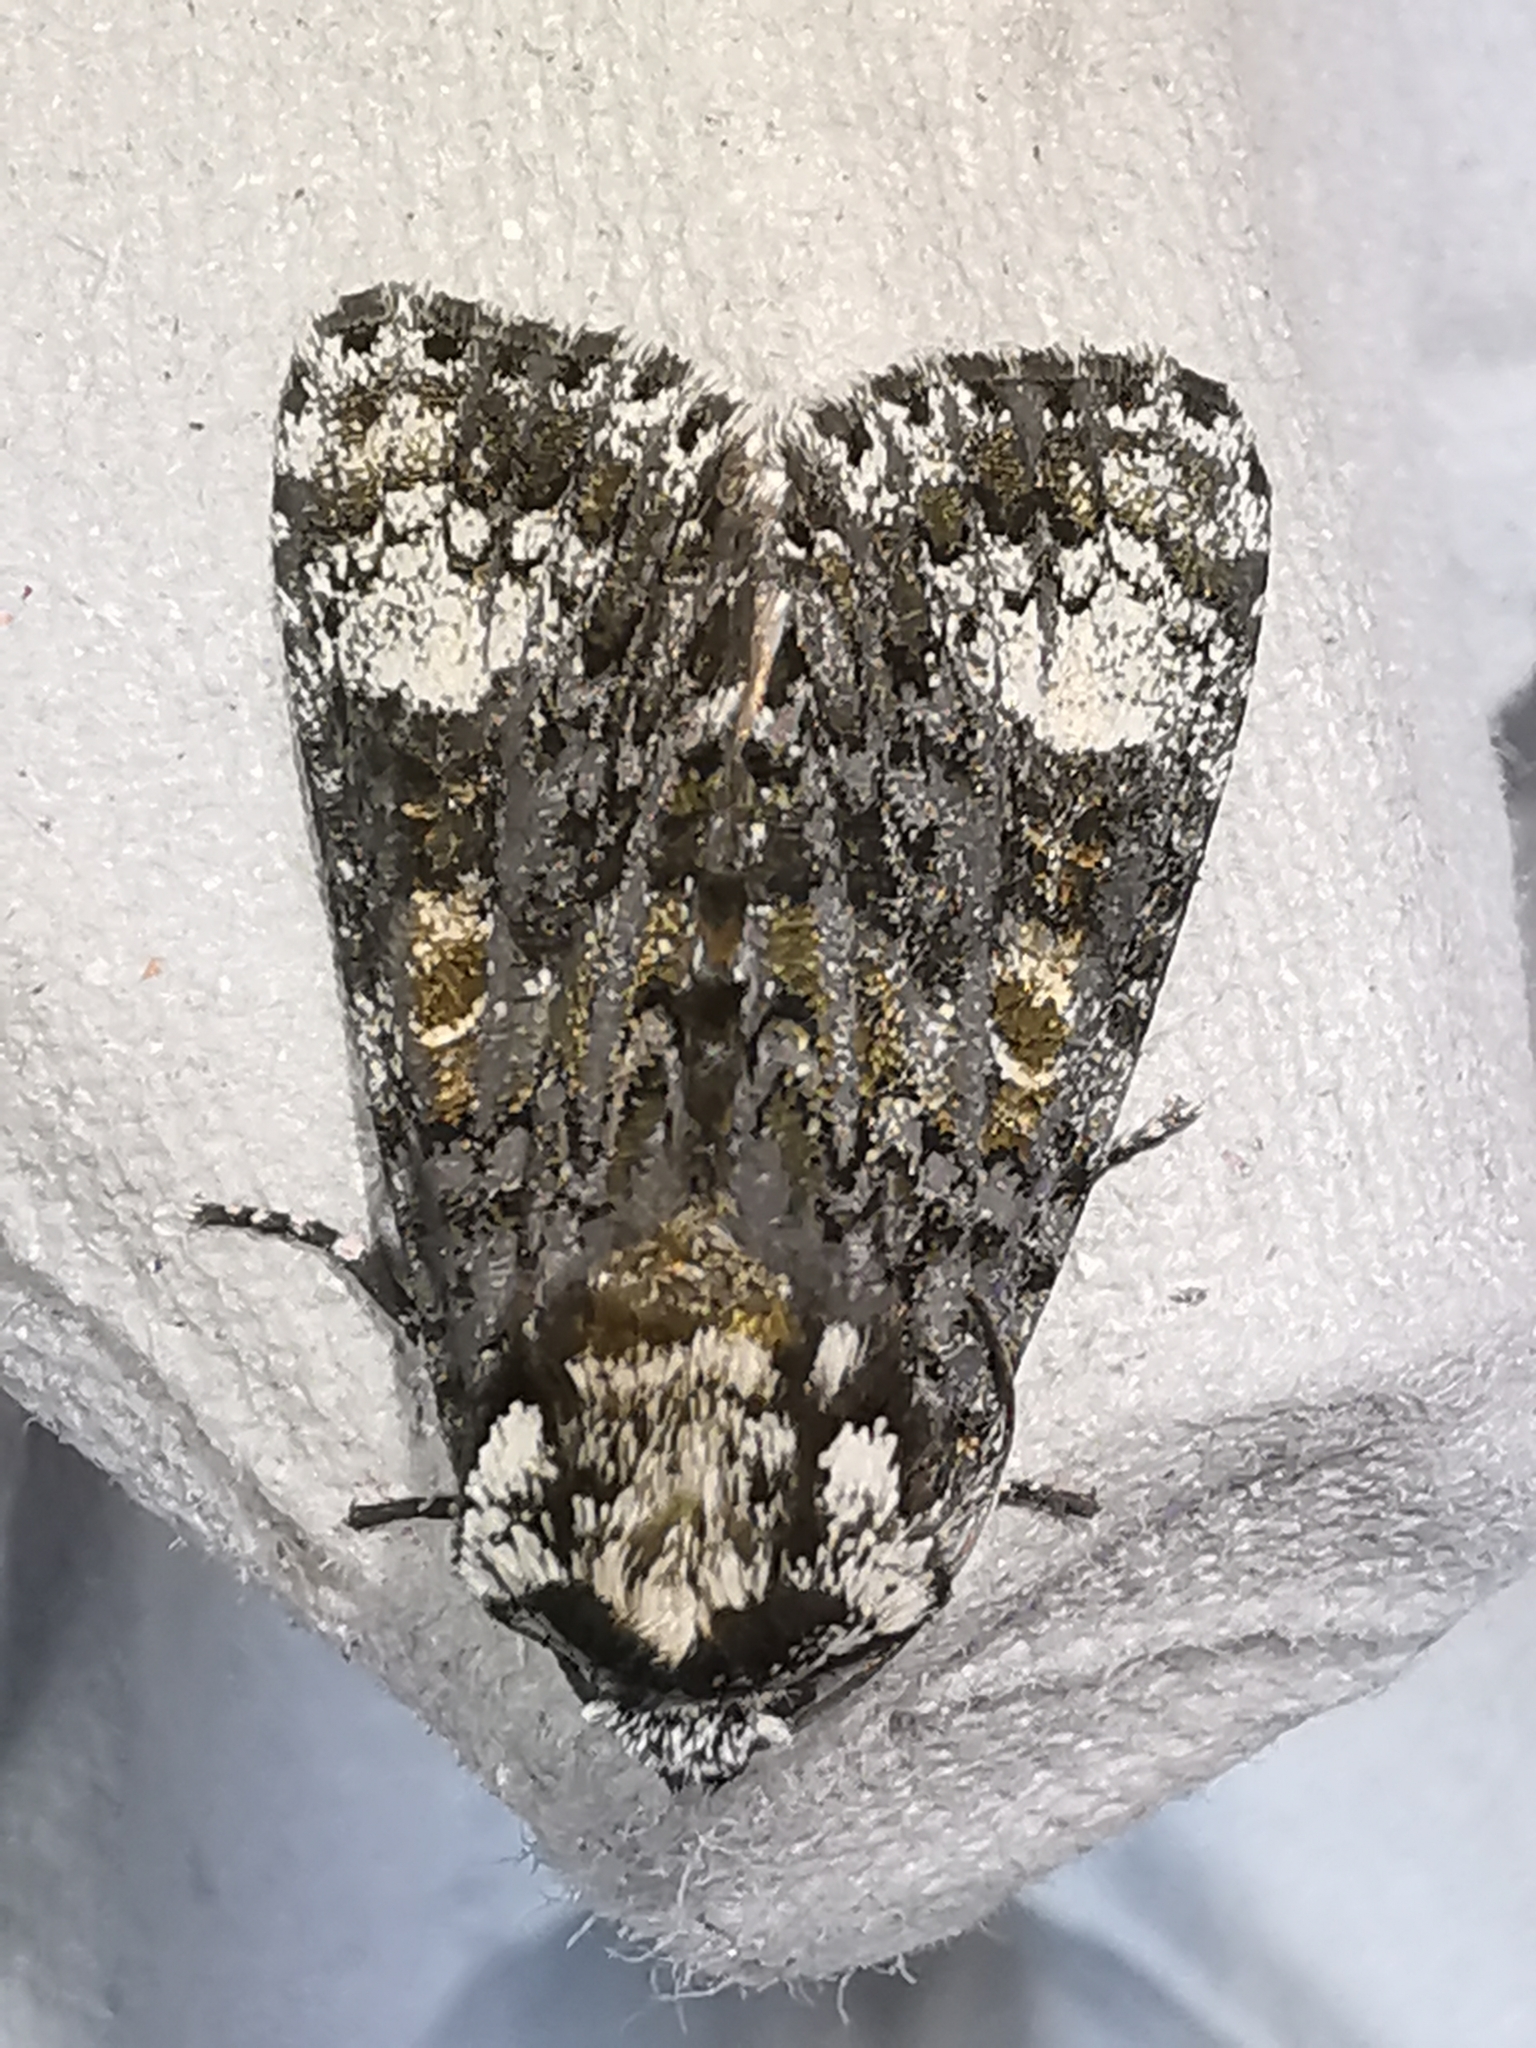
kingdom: Animalia
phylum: Arthropoda
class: Insecta
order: Lepidoptera
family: Noctuidae
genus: Craniophora
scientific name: Craniophora ligustri
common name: Coronet
